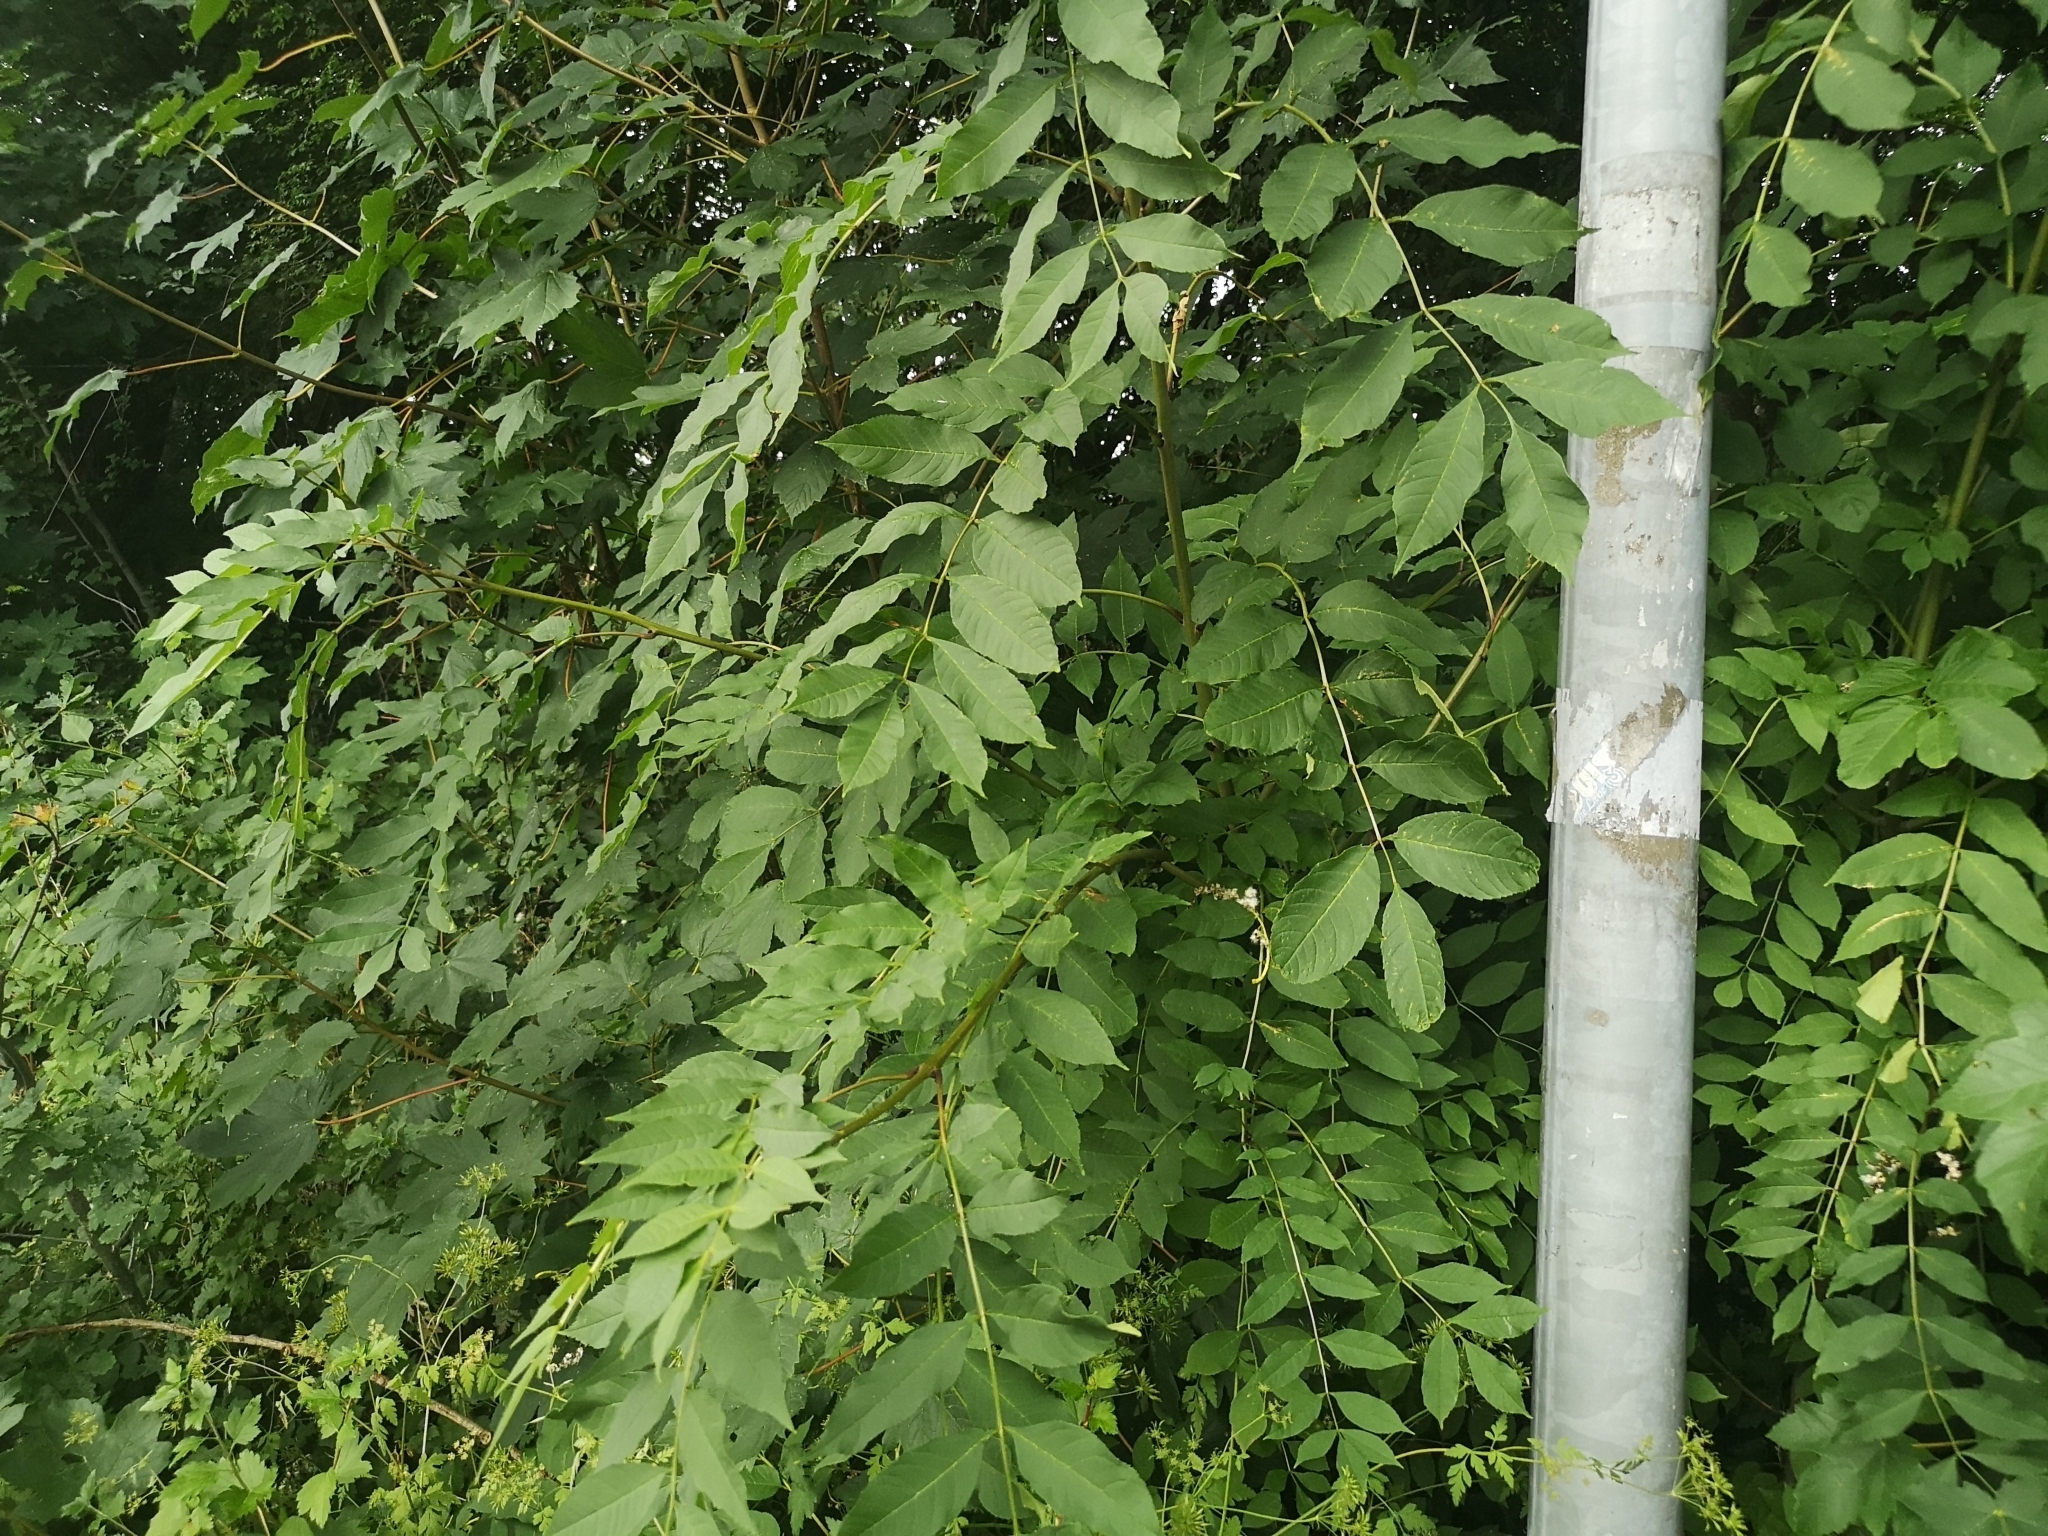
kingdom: Plantae
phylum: Tracheophyta
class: Magnoliopsida
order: Lamiales
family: Oleaceae
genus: Fraxinus
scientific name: Fraxinus excelsior
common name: European ash
